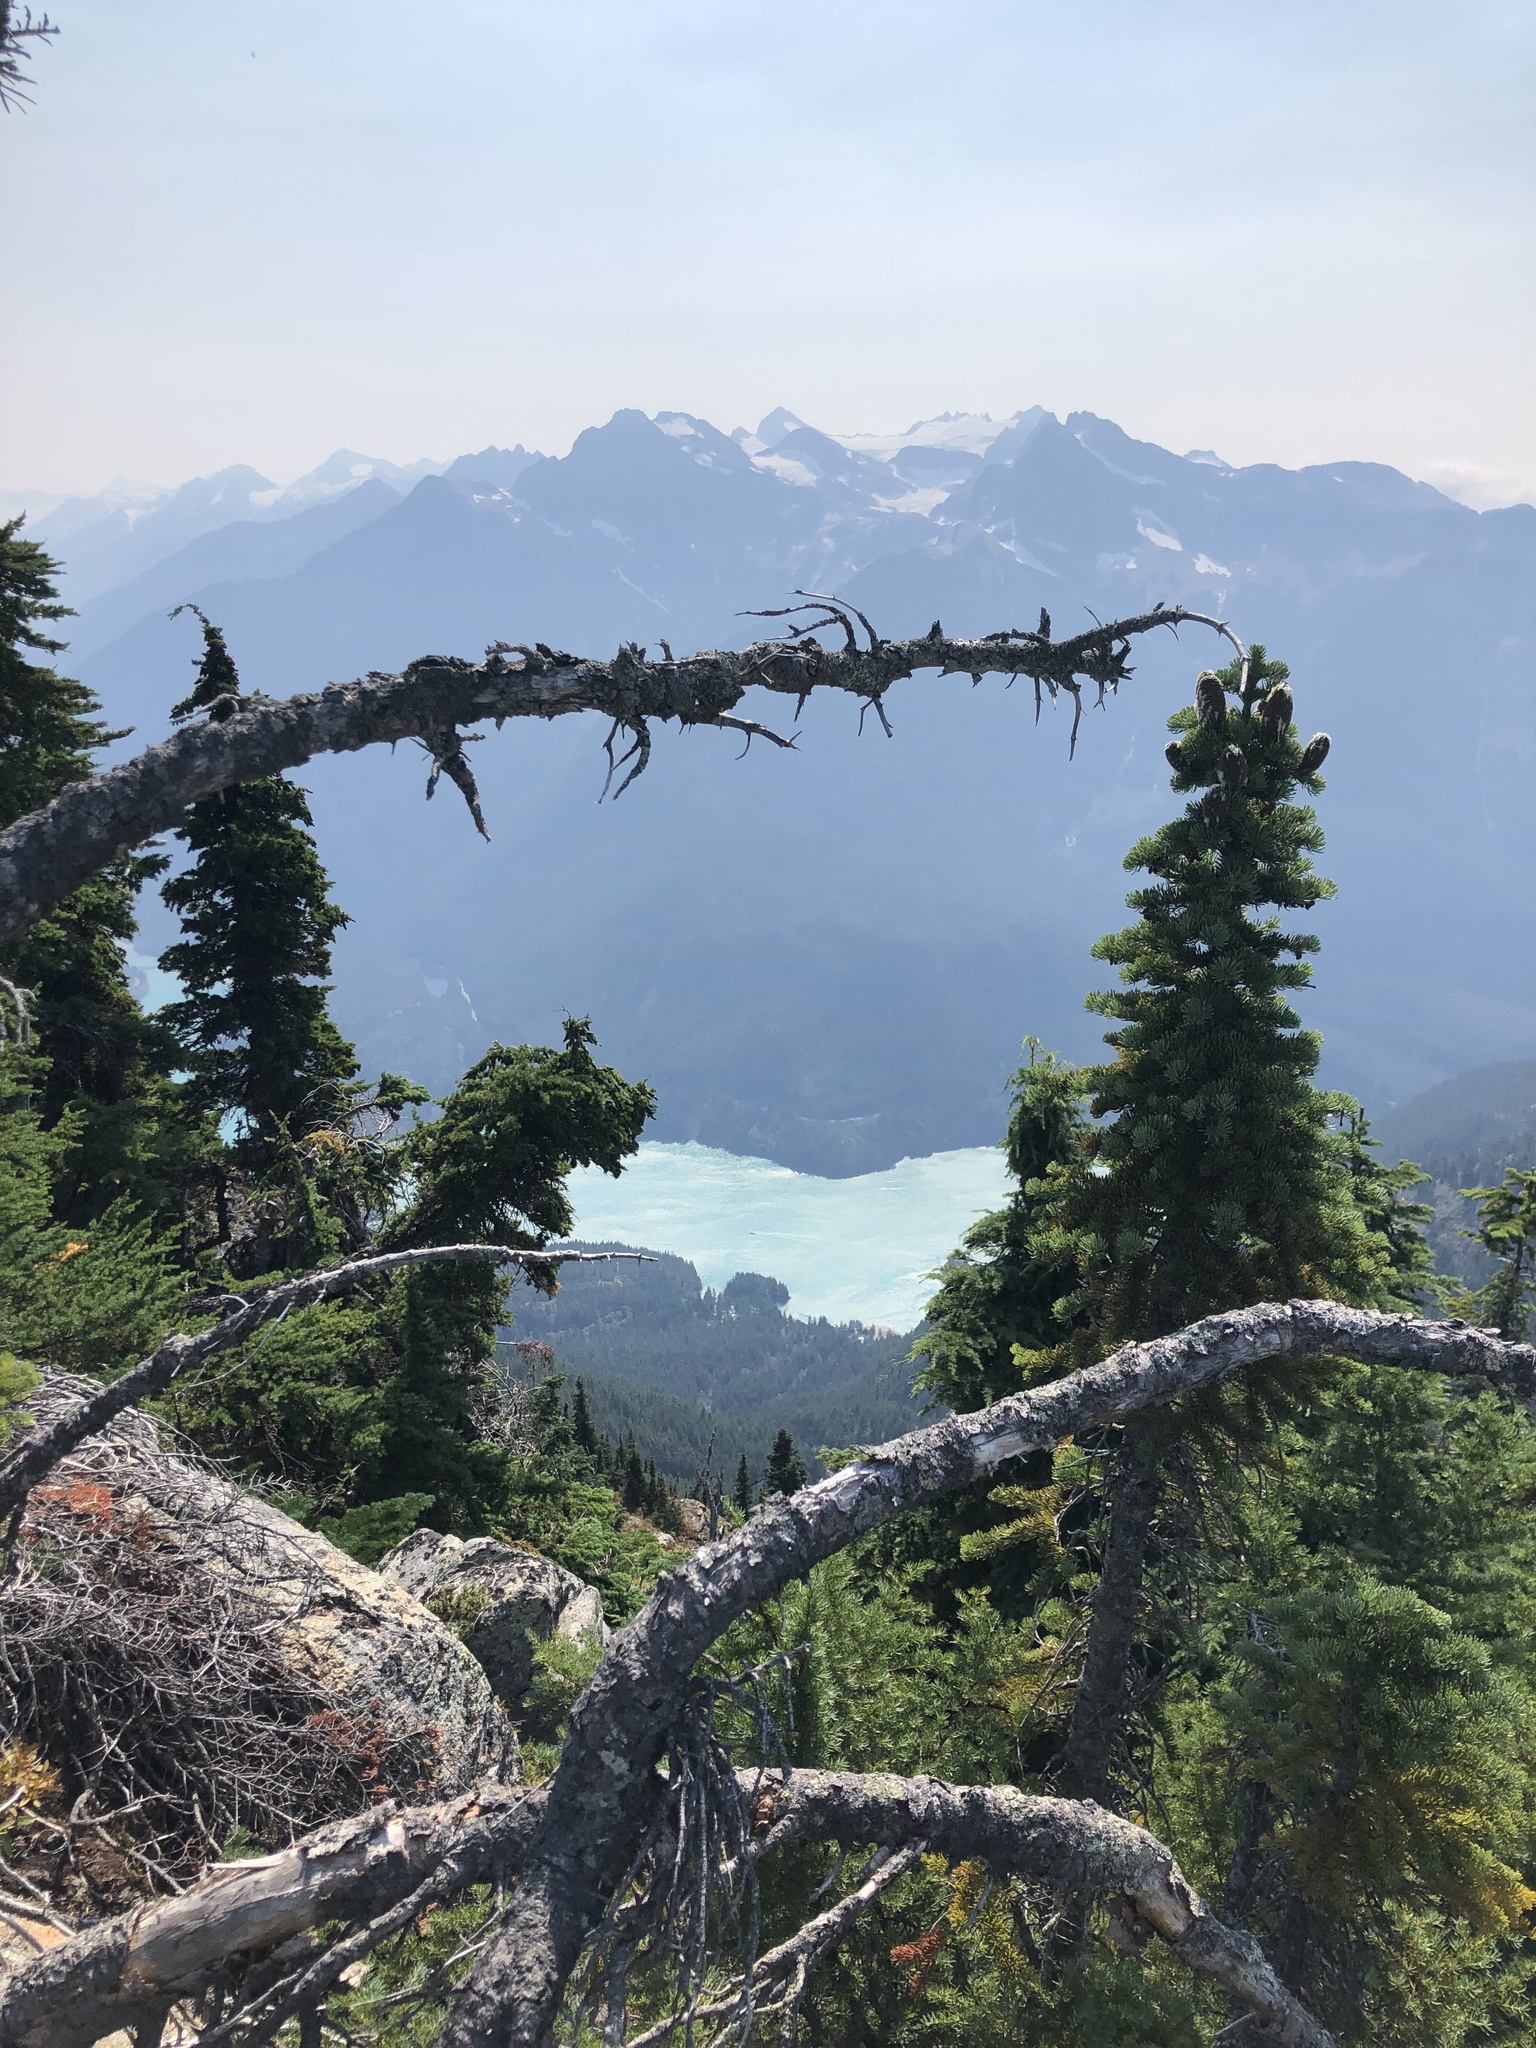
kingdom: Plantae
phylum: Tracheophyta
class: Pinopsida
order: Pinales
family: Pinaceae
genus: Abies
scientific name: Abies lasiocarpa
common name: Subalpine fir
